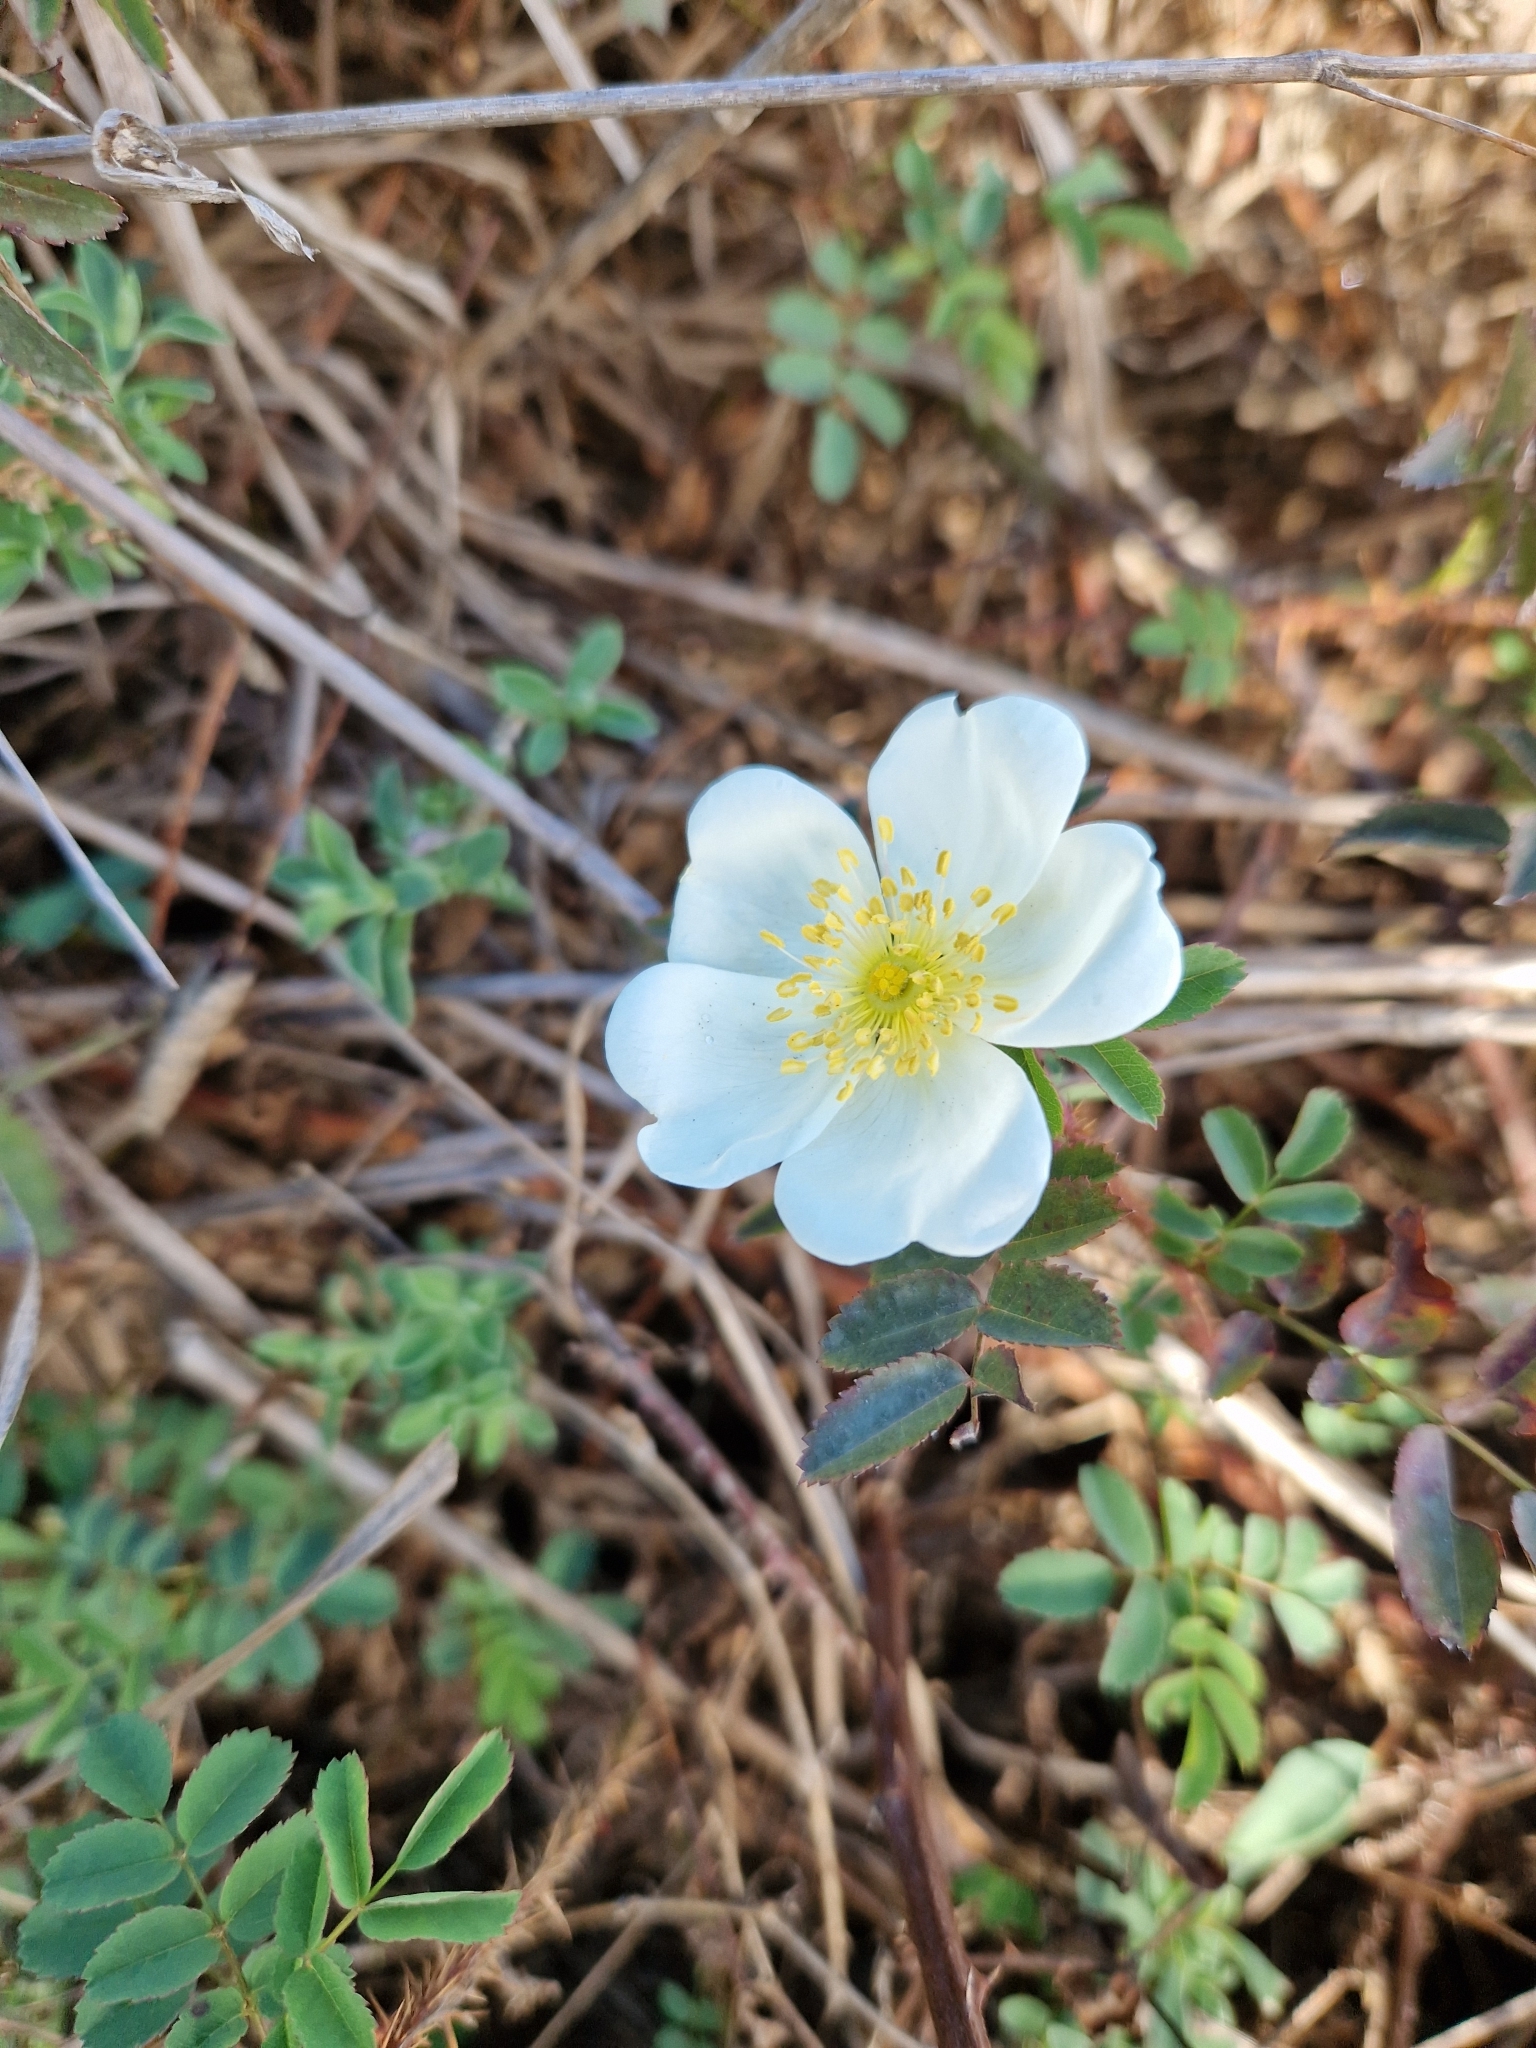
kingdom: Plantae
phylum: Tracheophyta
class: Magnoliopsida
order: Rosales
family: Rosaceae
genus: Rosa
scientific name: Rosa spinosissima
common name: Burnet rose
